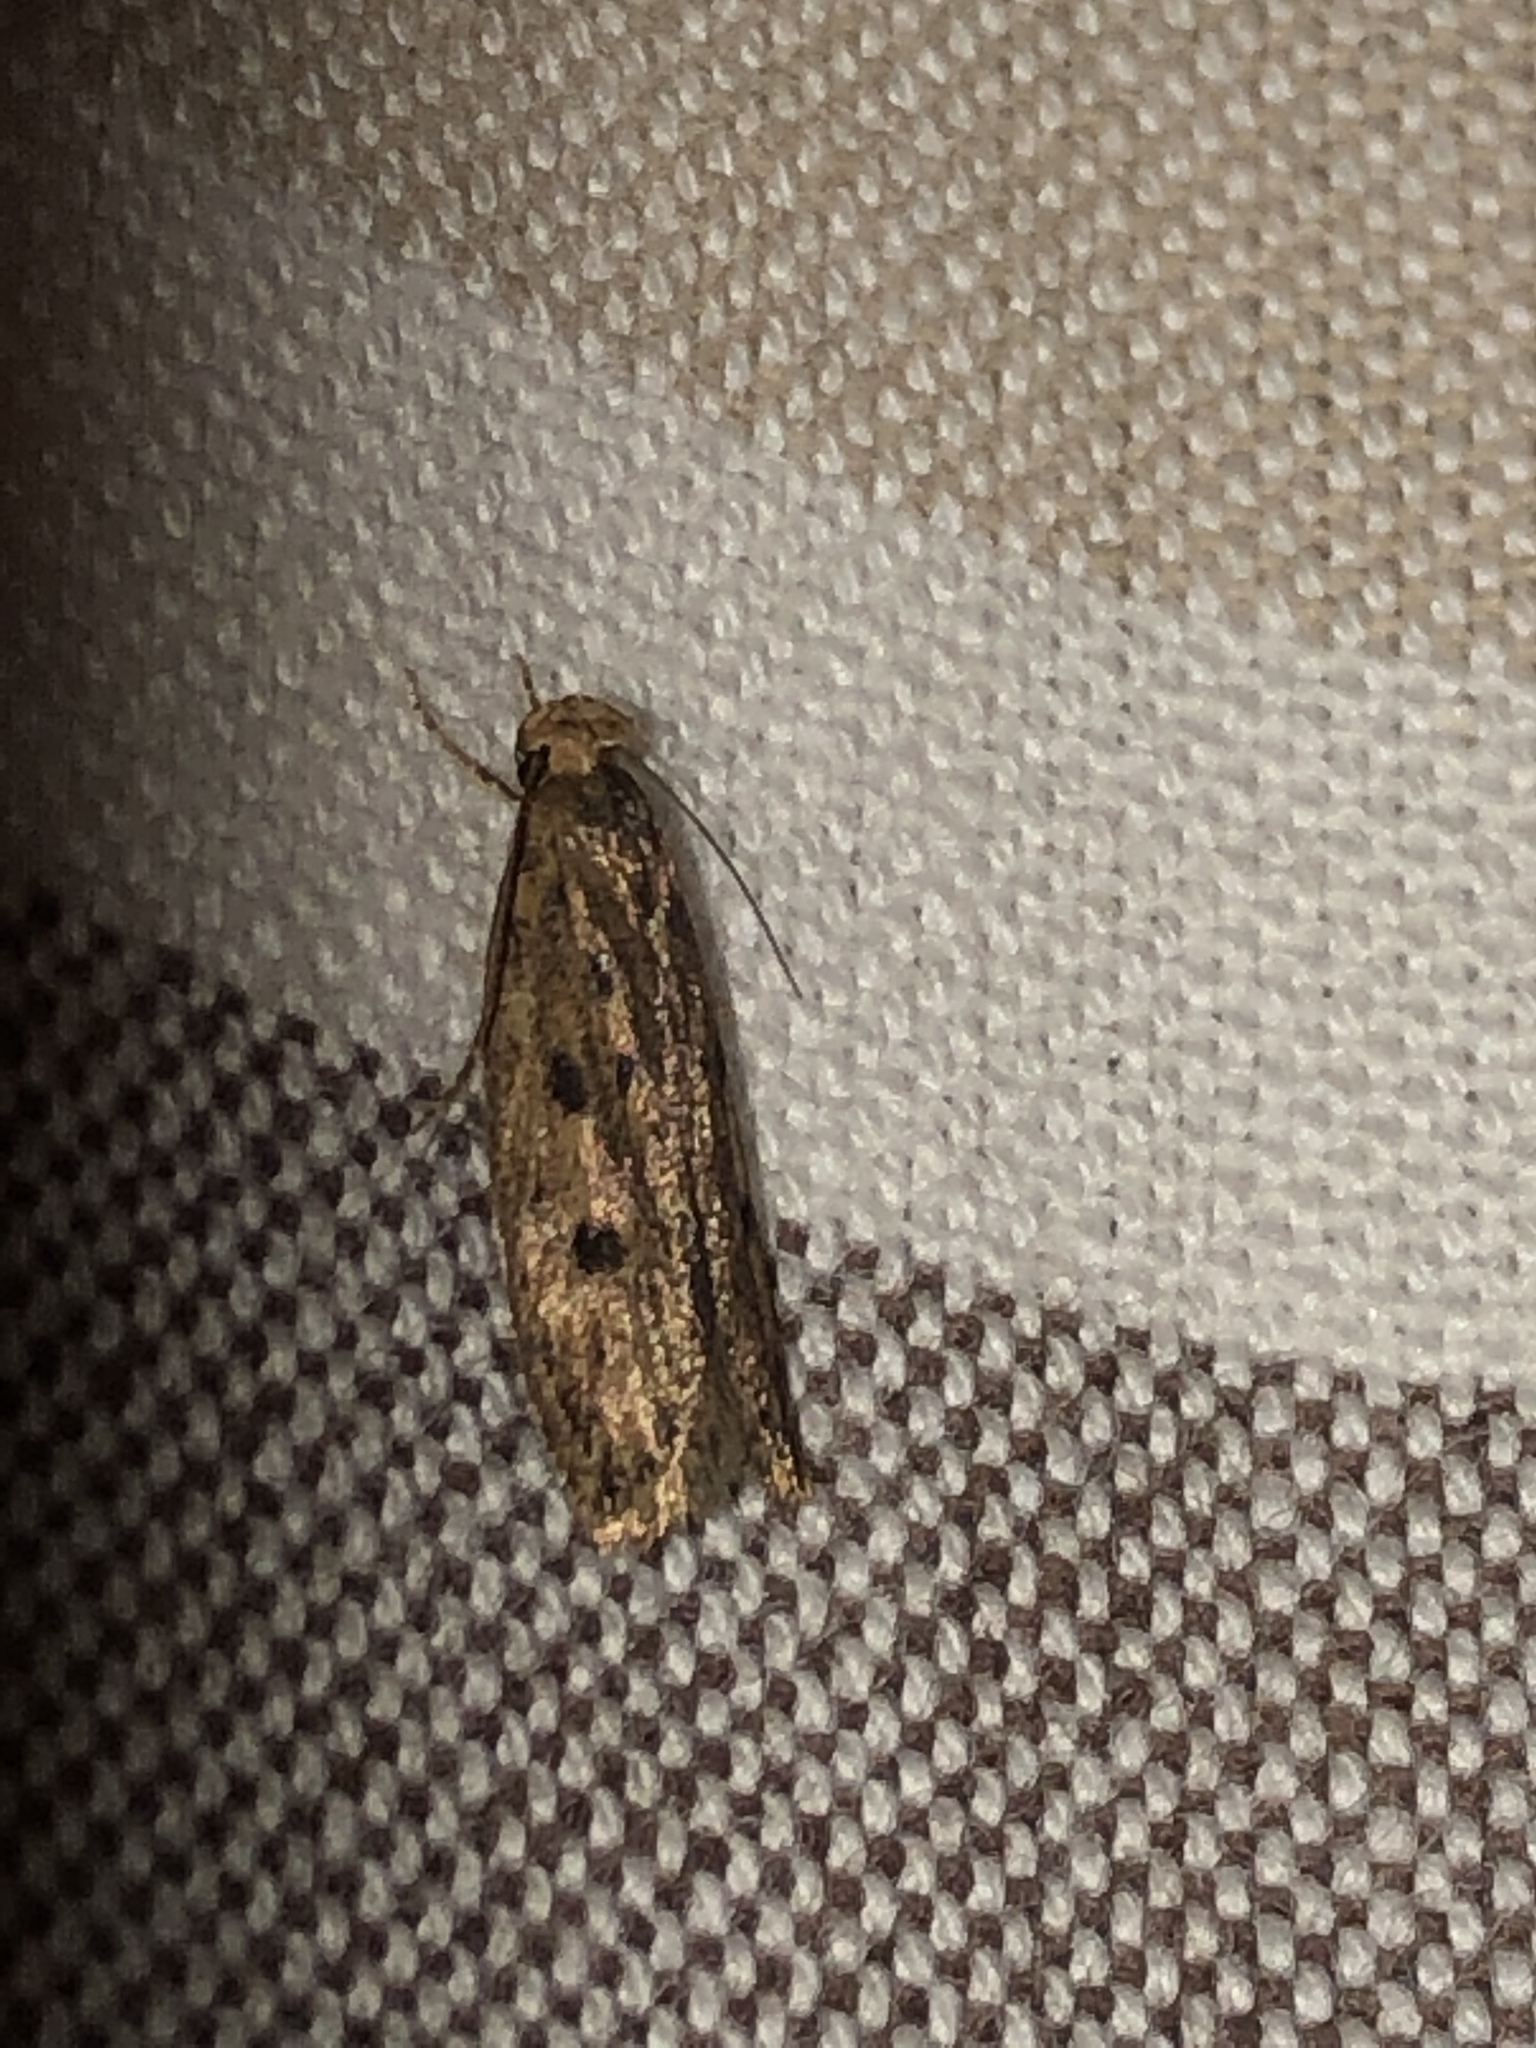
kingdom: Animalia
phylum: Arthropoda
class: Insecta
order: Lepidoptera
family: Oecophoridae
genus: Hofmannophila
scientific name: Hofmannophila pseudospretella
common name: Brown house moth
